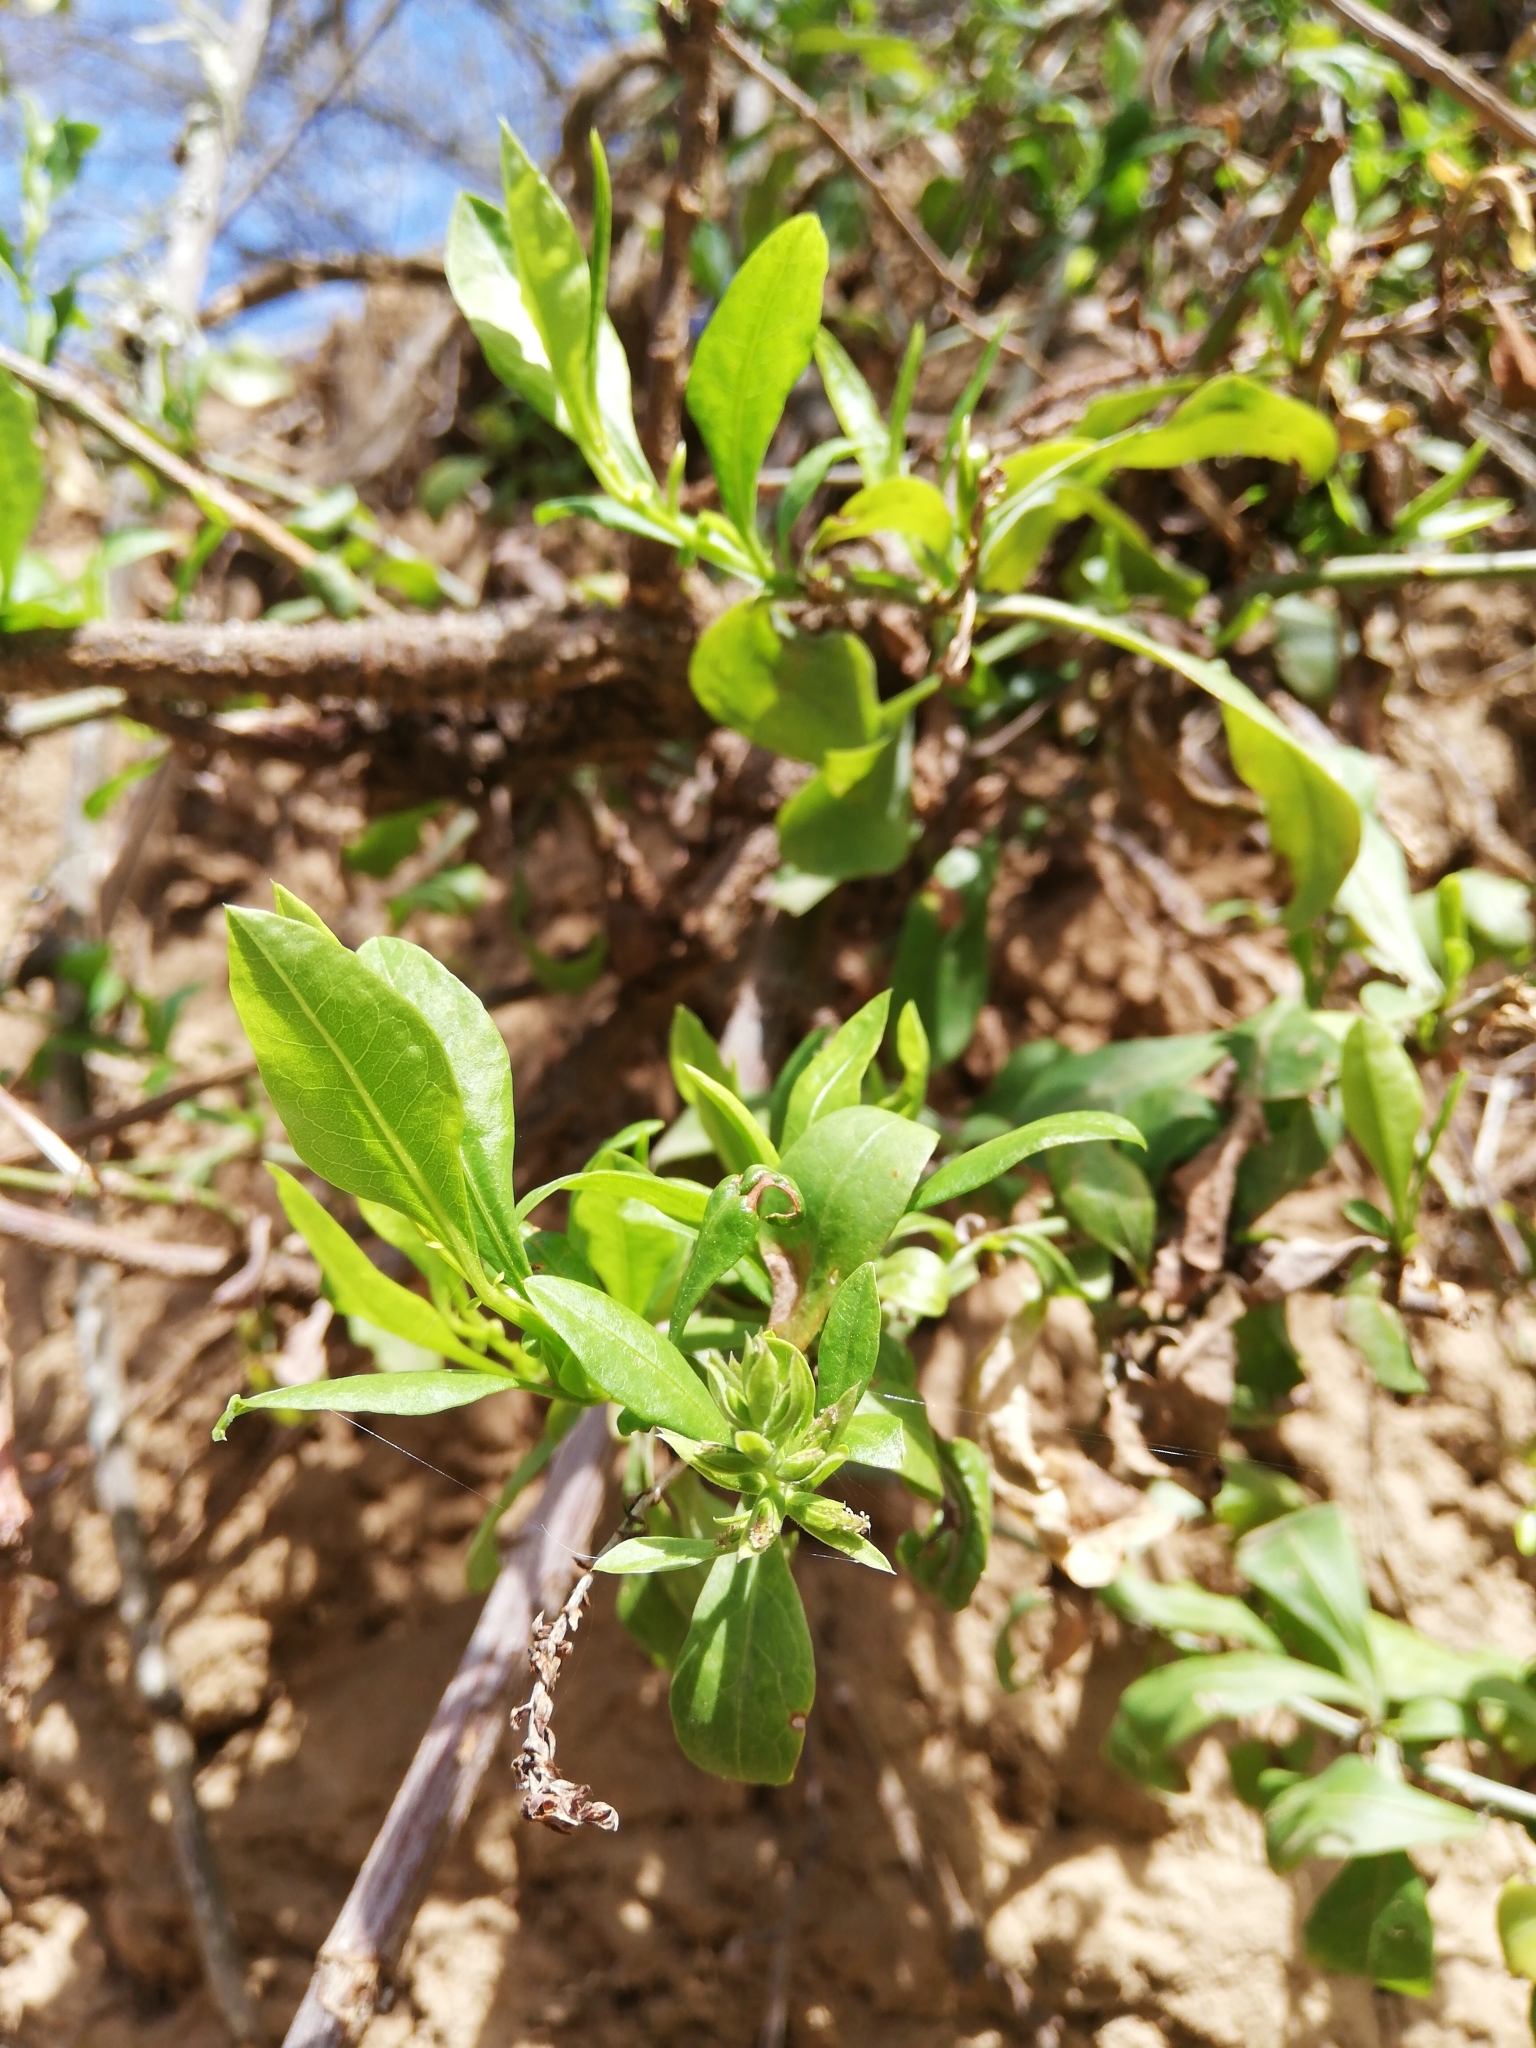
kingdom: Plantae
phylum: Tracheophyta
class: Magnoliopsida
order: Caryophyllales
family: Plumbaginaceae
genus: Plumbago
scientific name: Plumbago auriculata
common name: Cape leadwort
